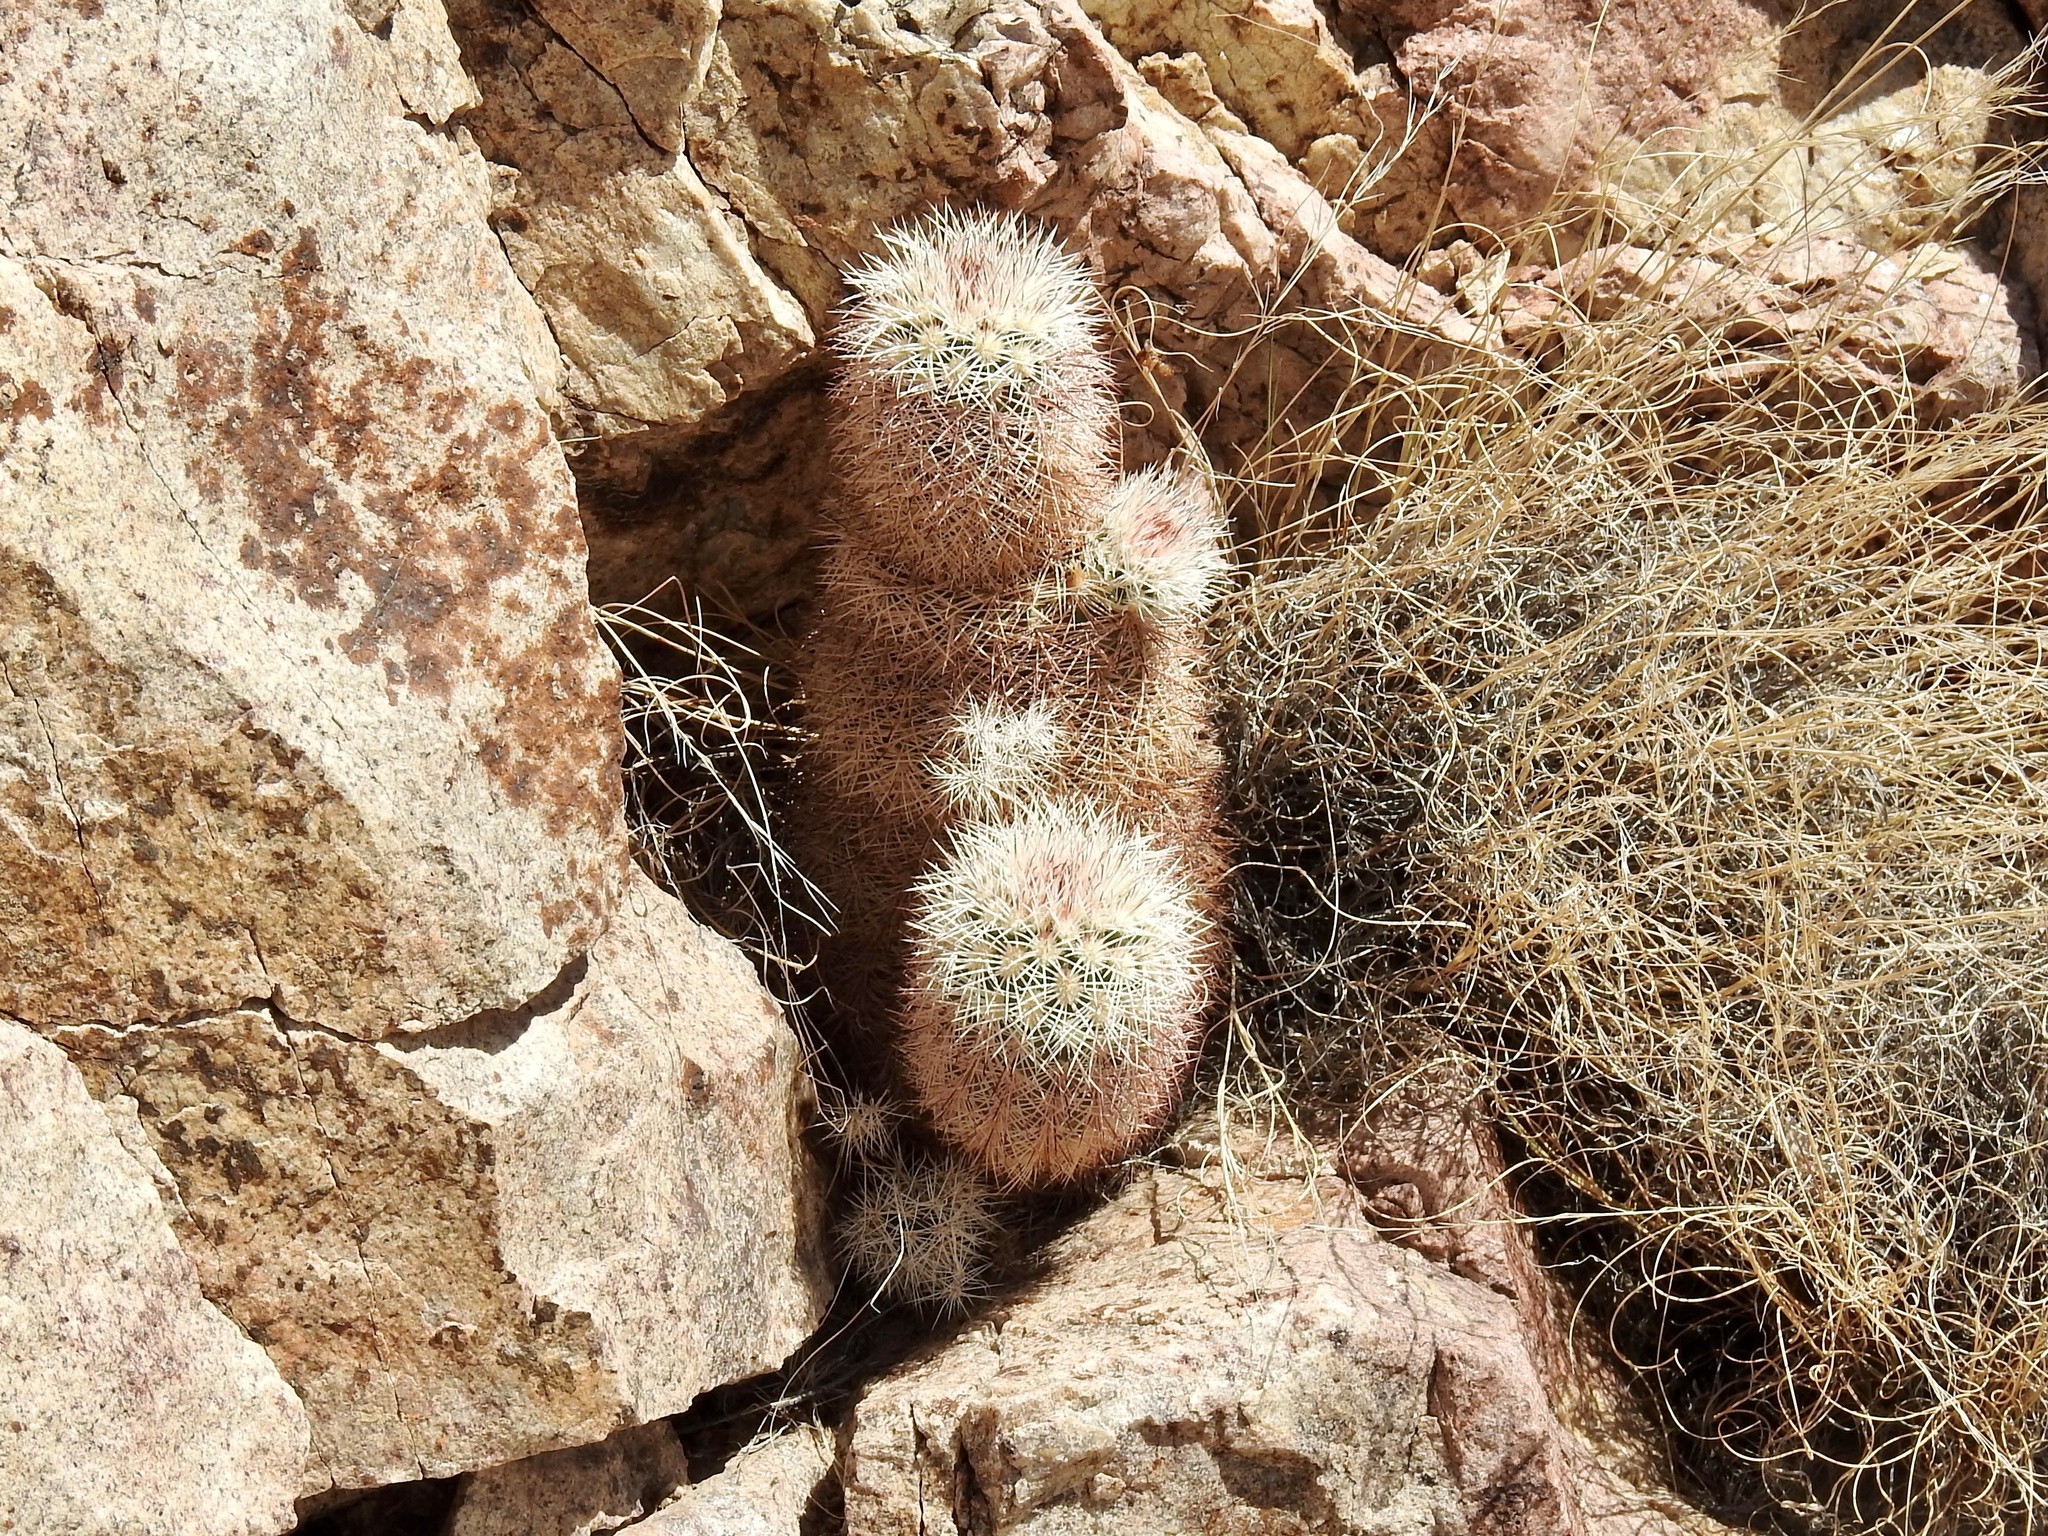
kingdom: Plantae
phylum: Tracheophyta
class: Magnoliopsida
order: Caryophyllales
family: Cactaceae
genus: Echinocereus
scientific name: Echinocereus dasyacanthus
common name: Spiny hedgehog cactus
